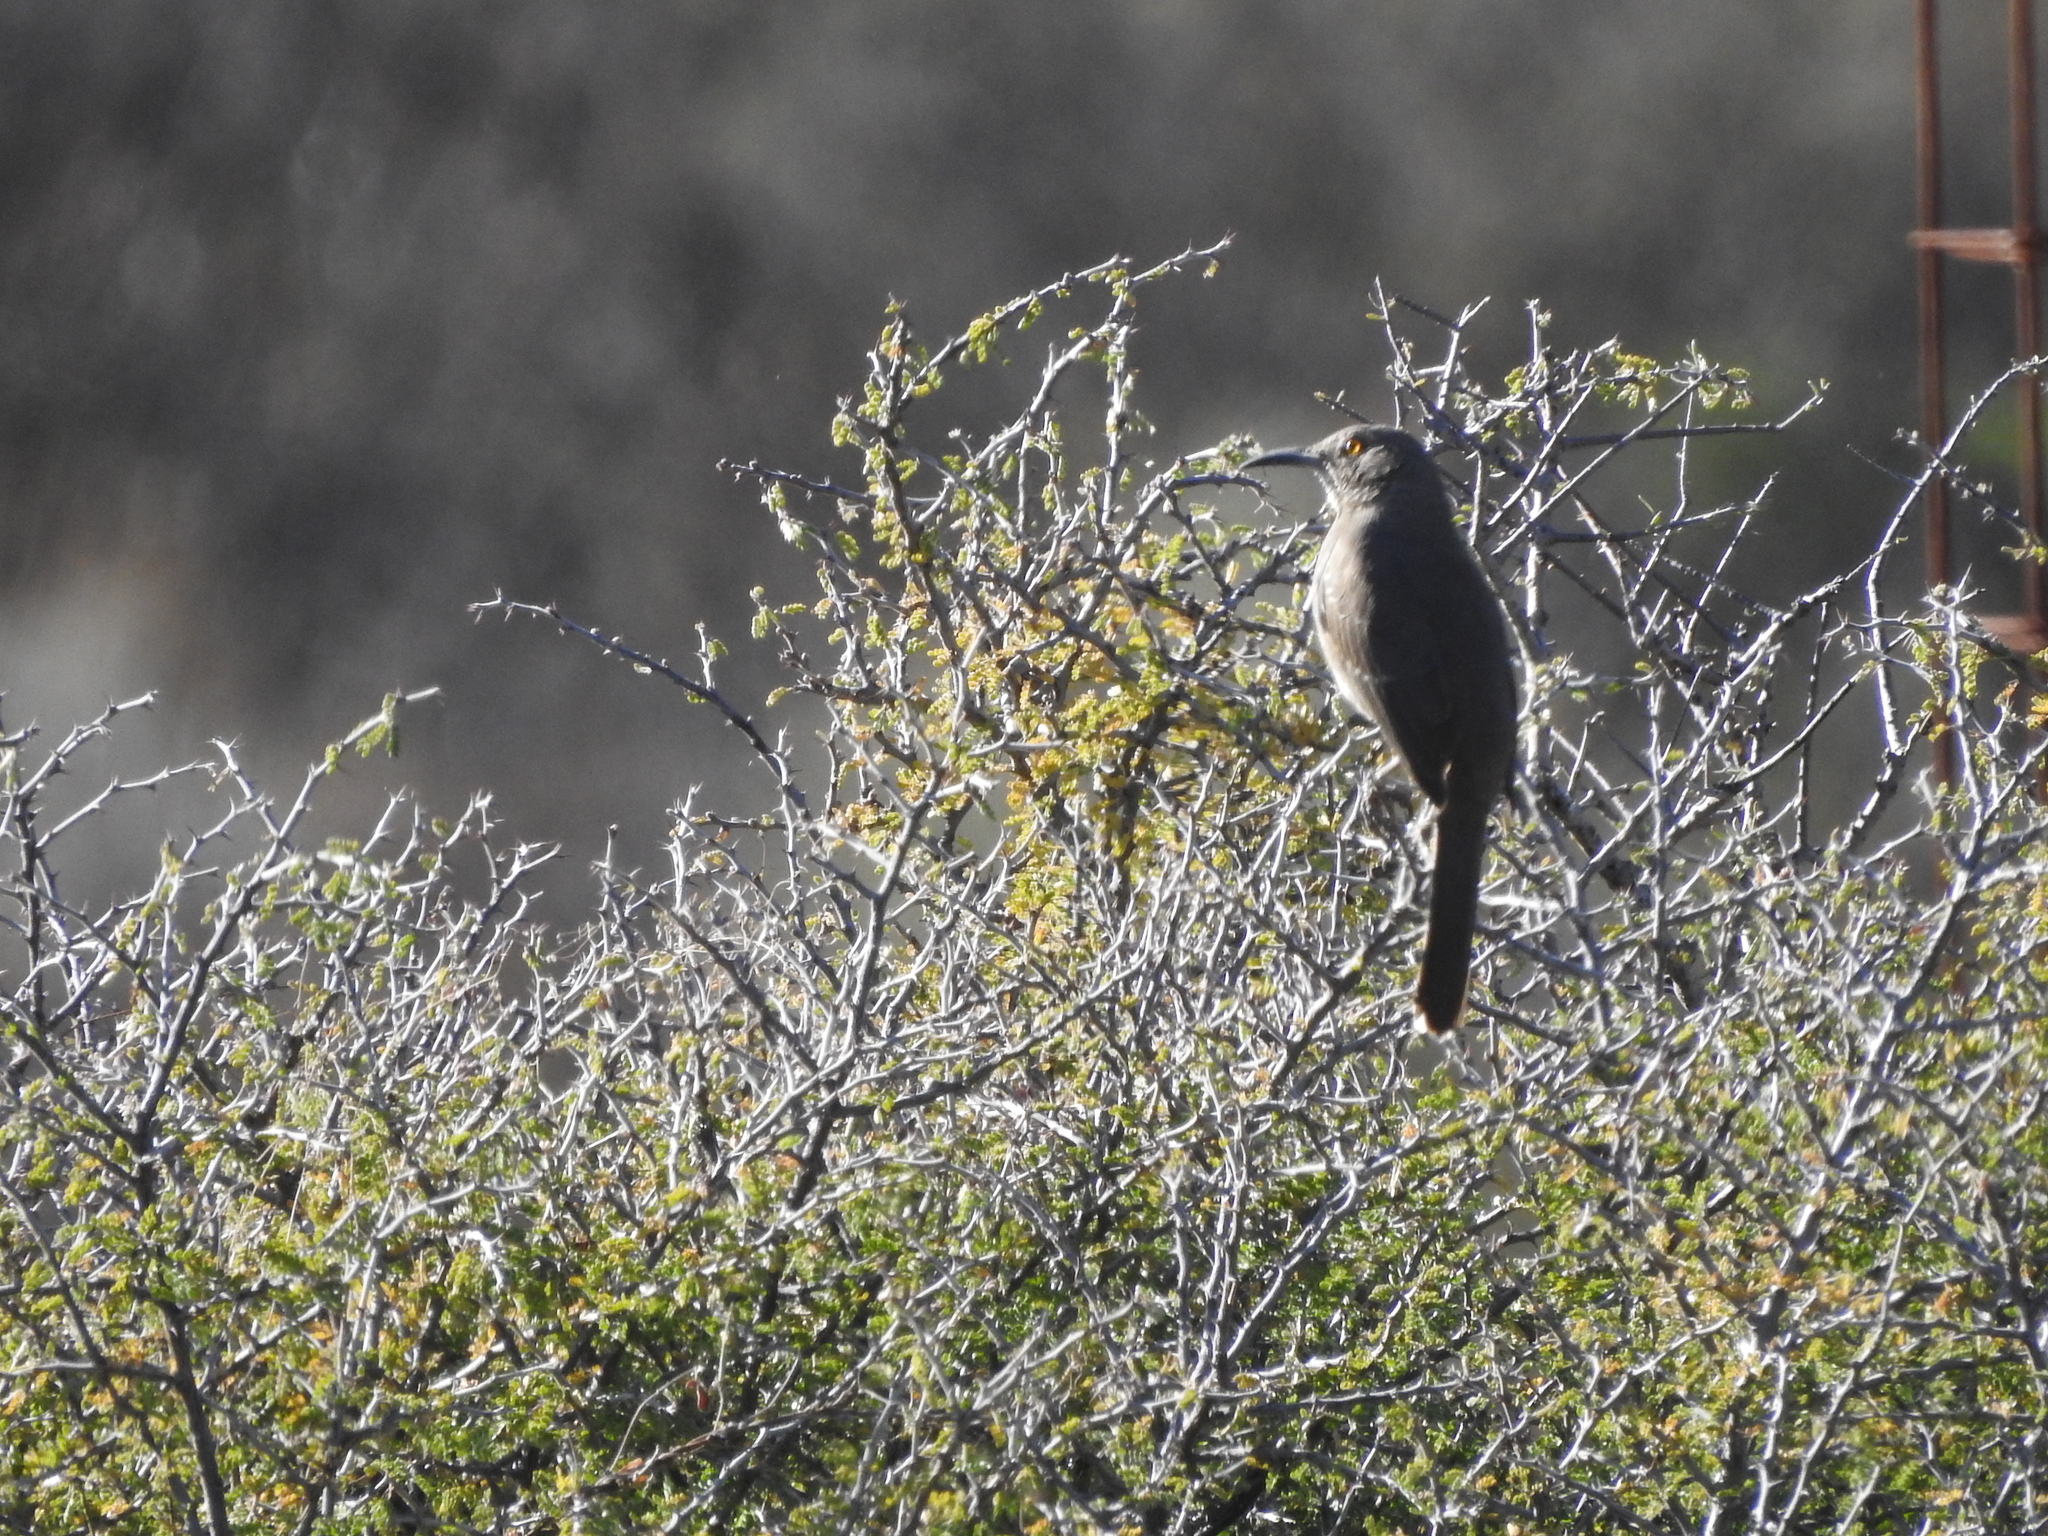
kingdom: Animalia
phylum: Chordata
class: Aves
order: Passeriformes
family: Mimidae
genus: Toxostoma
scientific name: Toxostoma curvirostre
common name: Curve-billed thrasher
